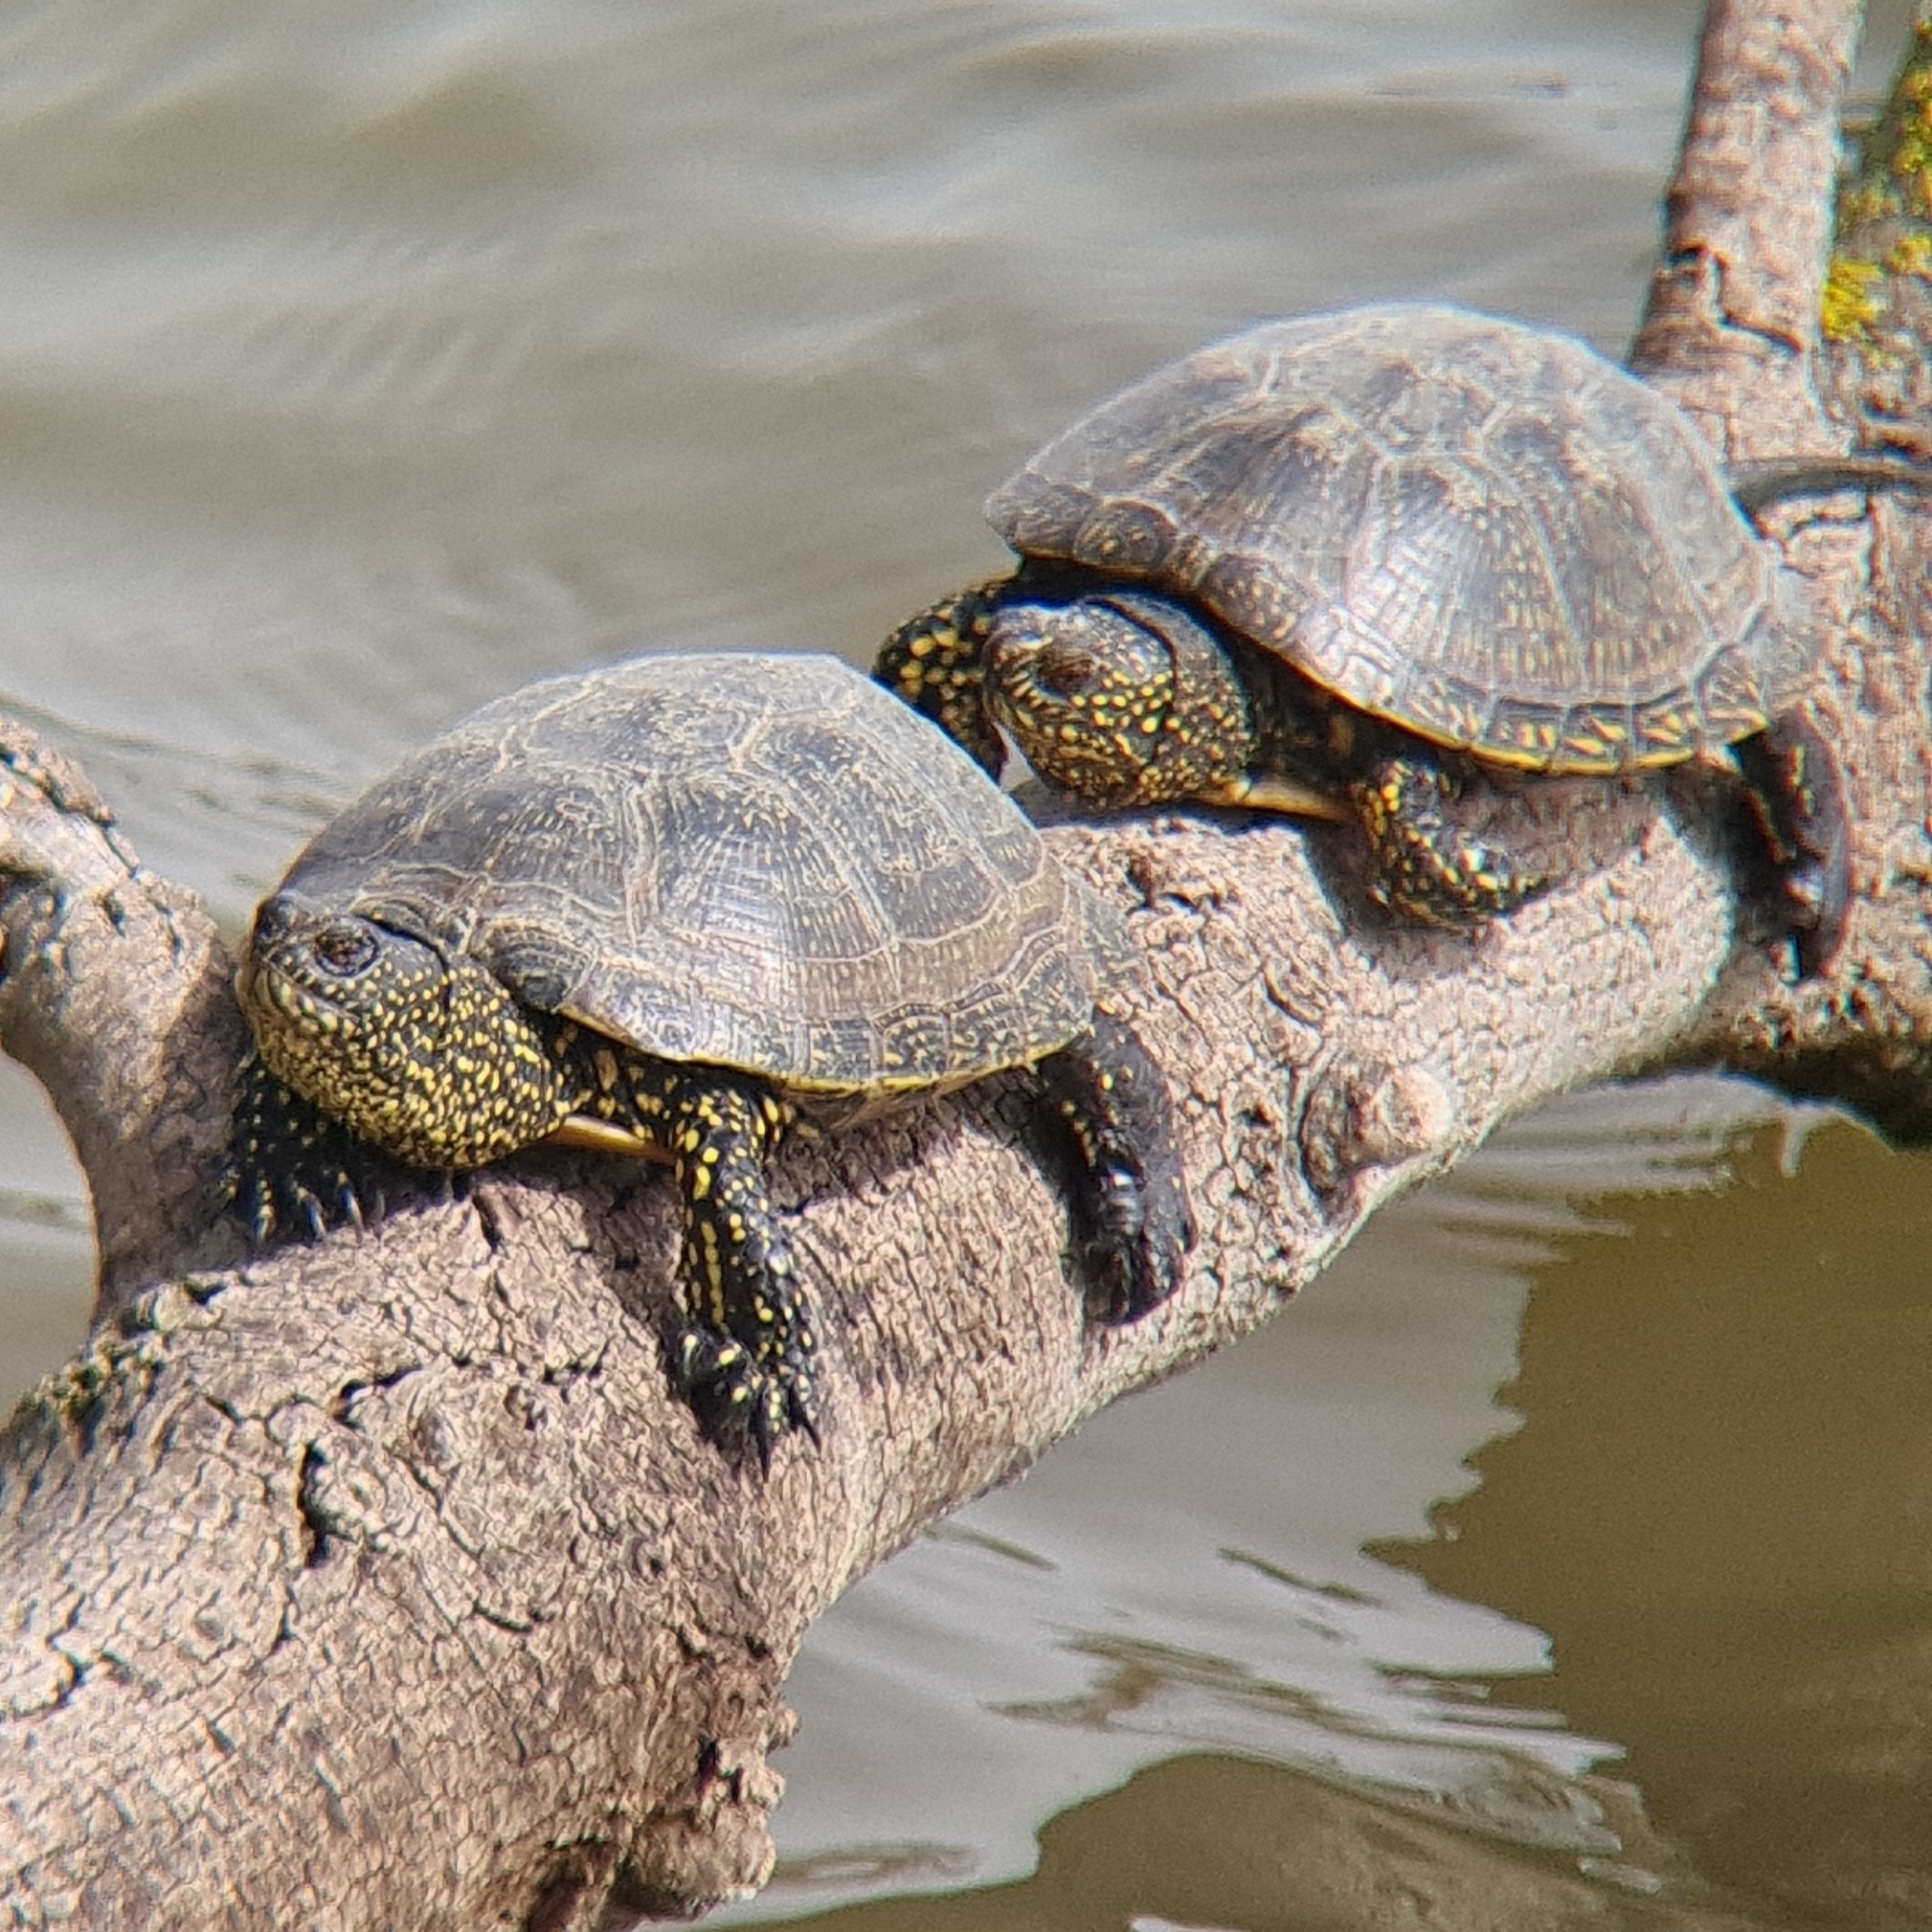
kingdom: Animalia
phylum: Chordata
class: Testudines
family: Emydidae
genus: Emys
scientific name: Emys orbicularis
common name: European pond turtle
